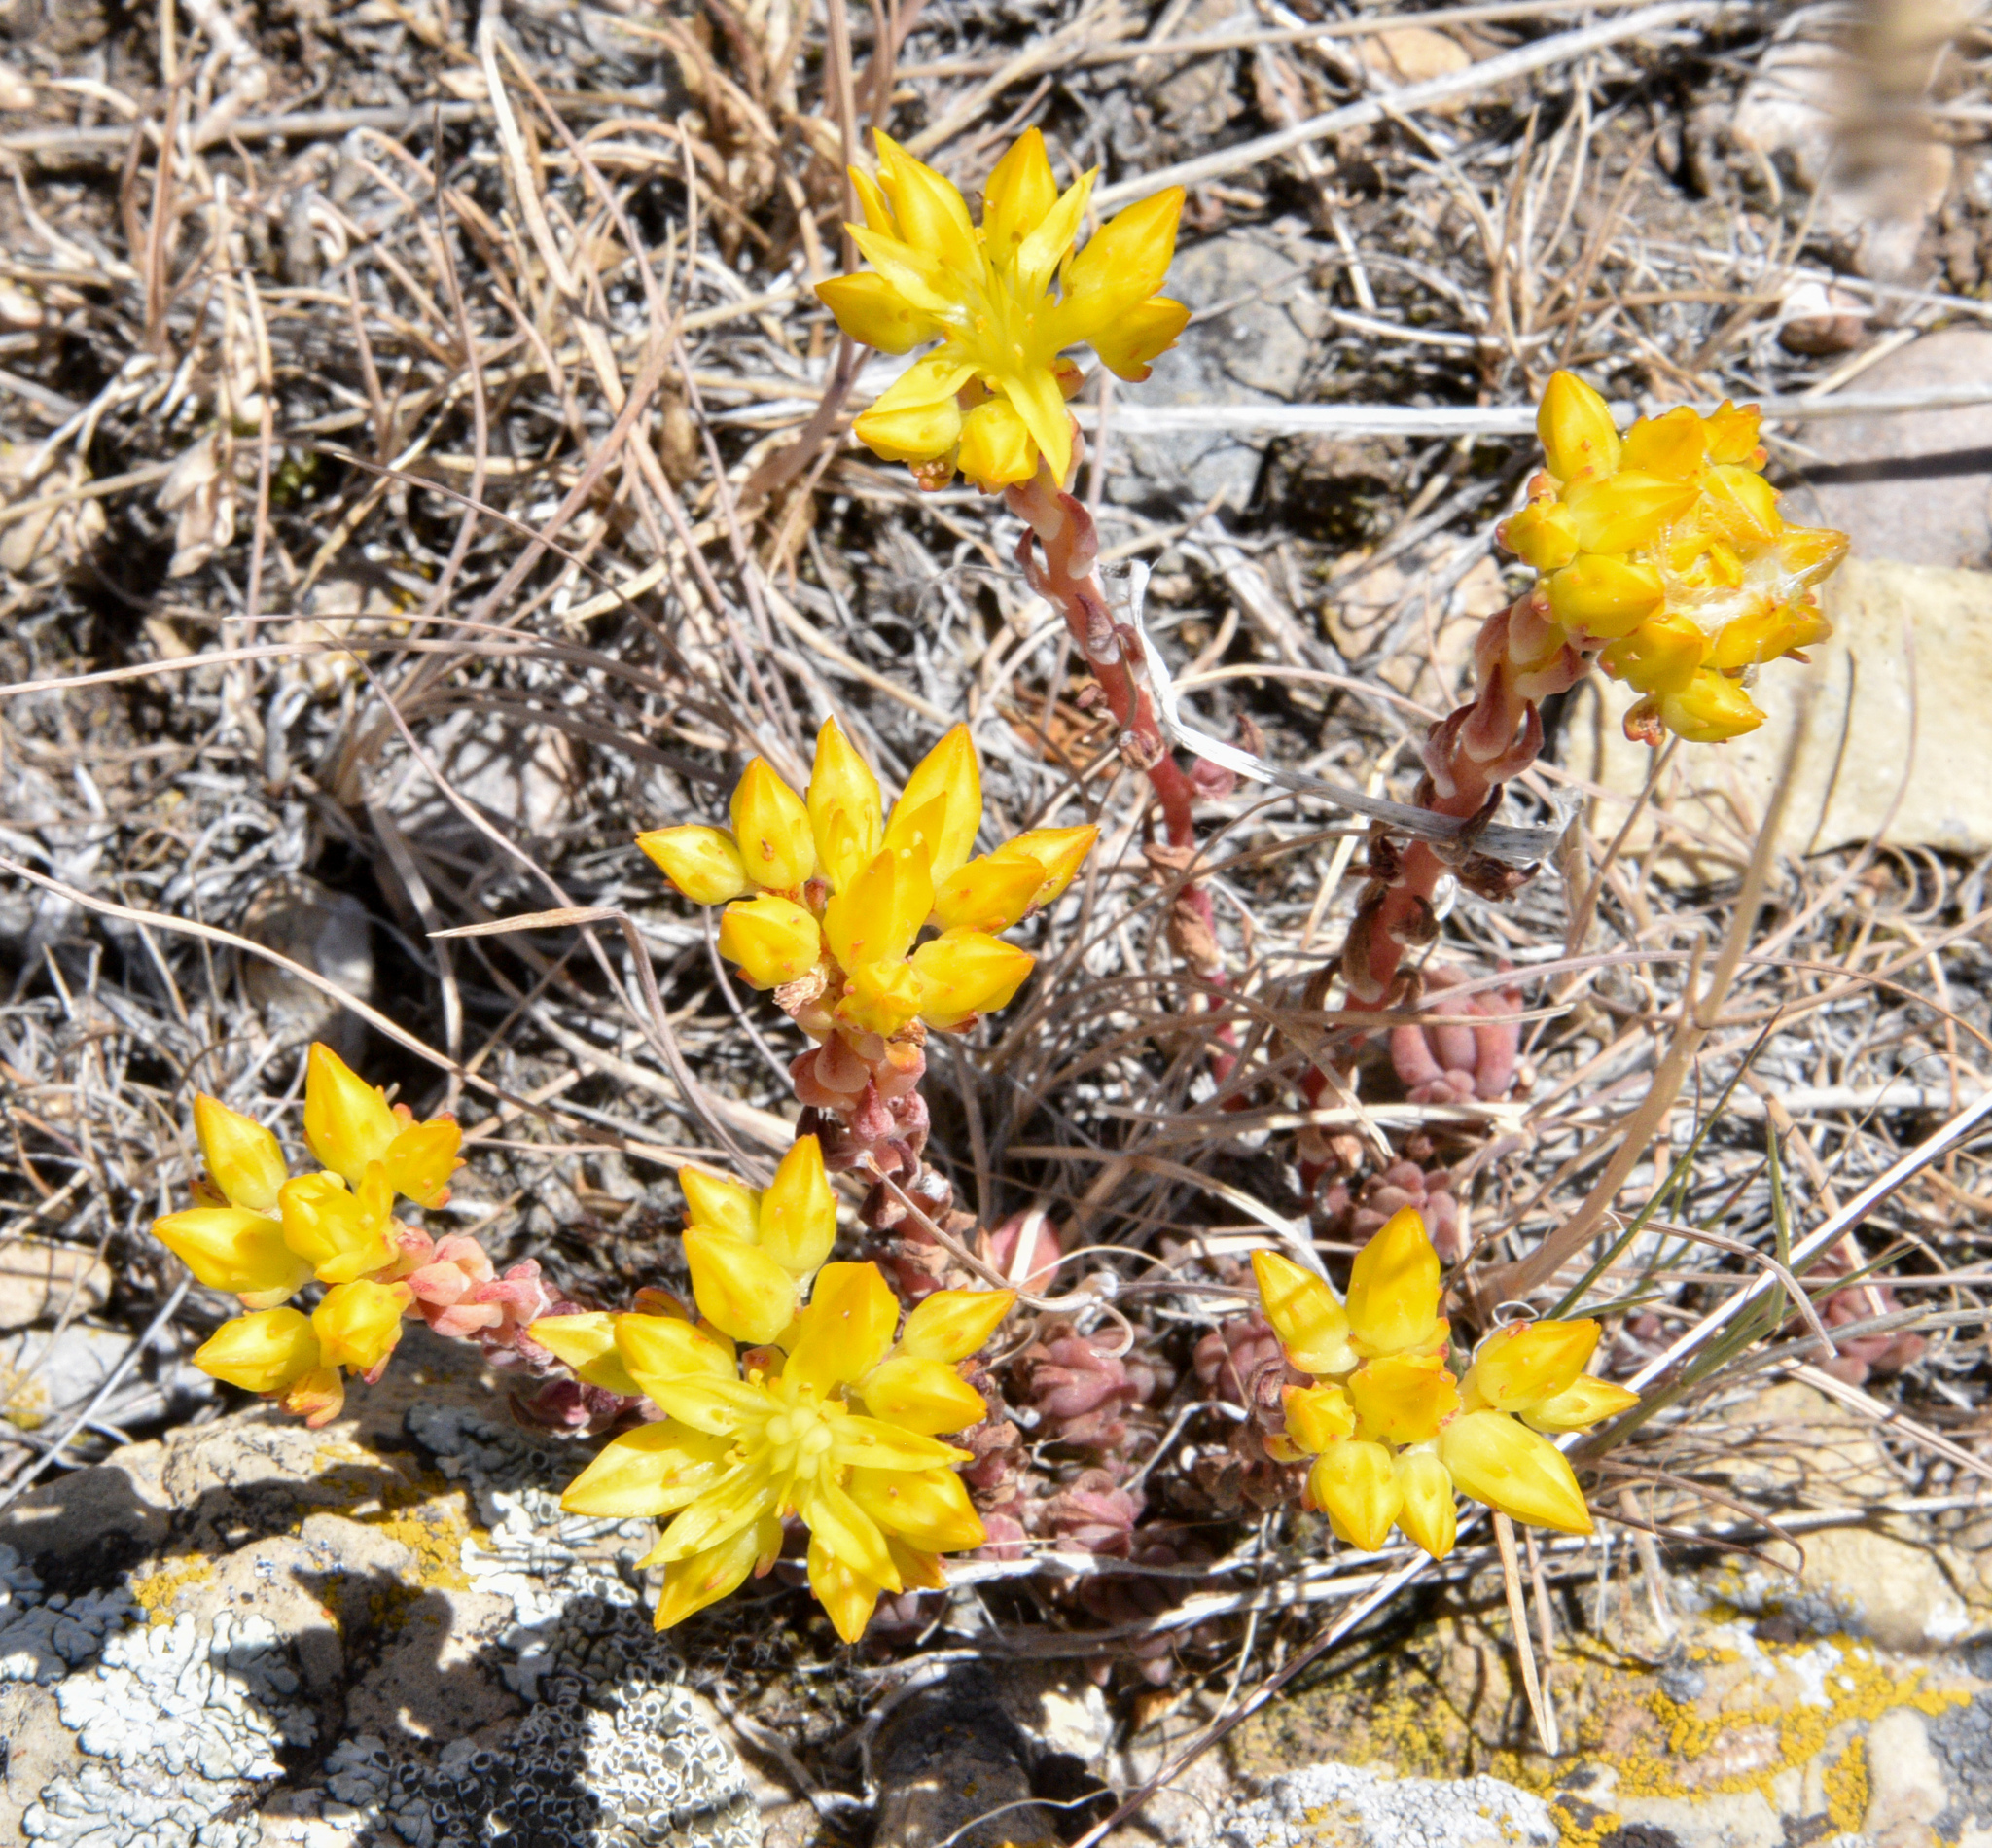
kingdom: Plantae
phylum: Tracheophyta
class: Magnoliopsida
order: Saxifragales
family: Crassulaceae
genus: Sedum
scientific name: Sedum lanceolatum
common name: Common stonecrop
